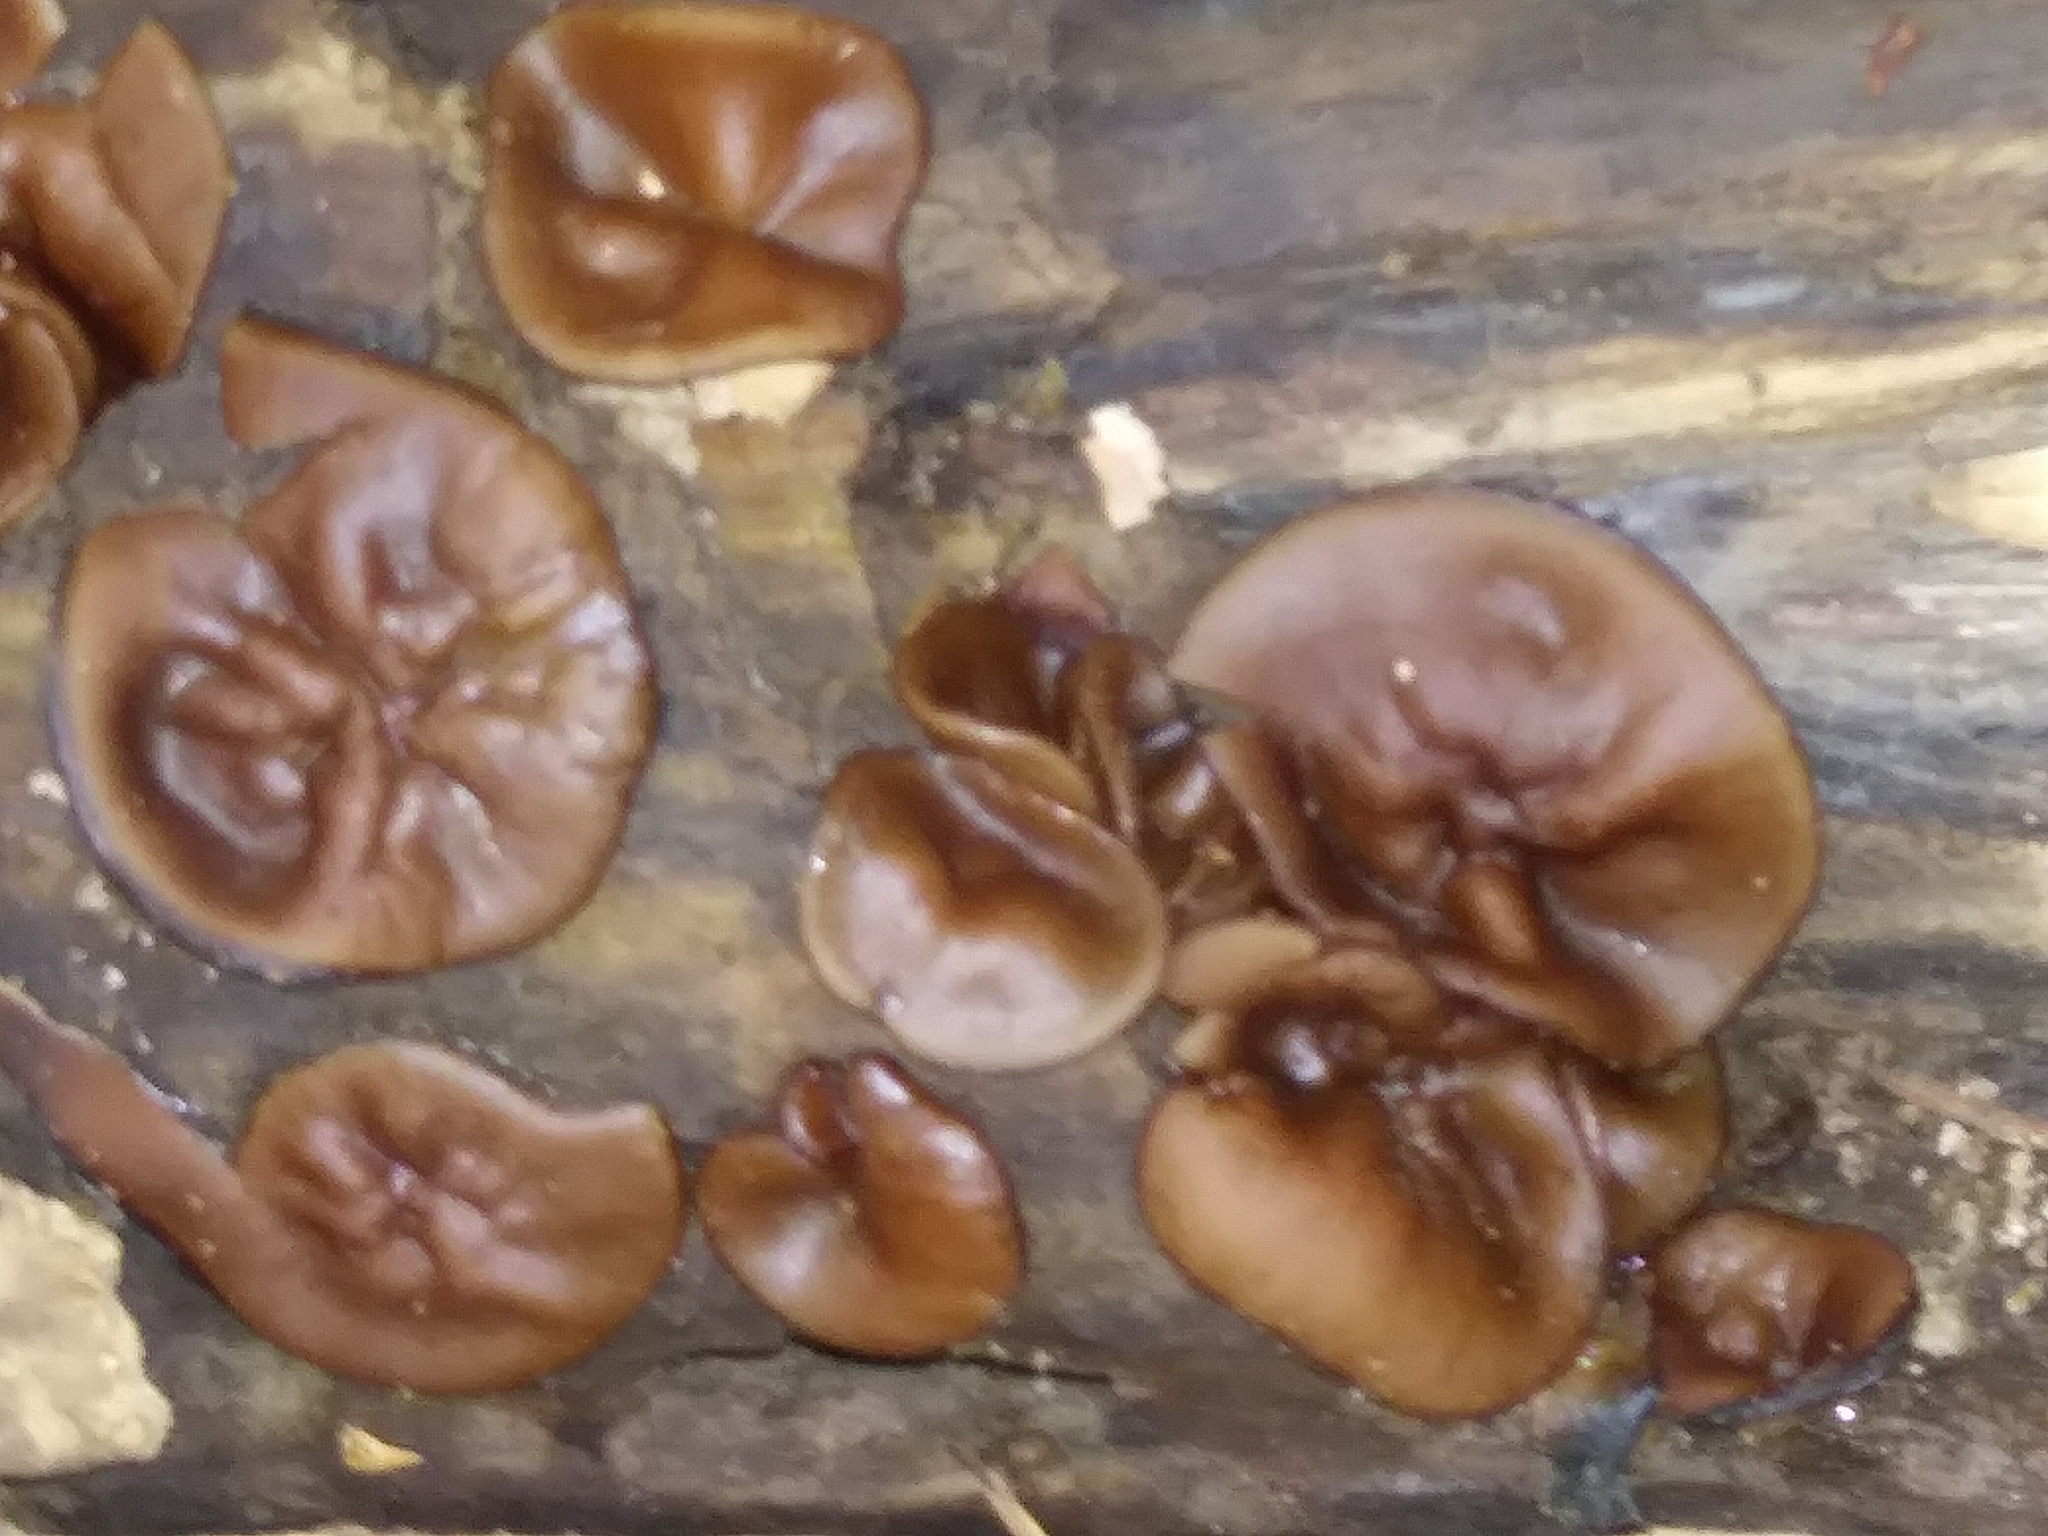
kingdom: Fungi
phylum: Ascomycota
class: Pezizomycetes
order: Pezizales
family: Pezizaceae
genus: Pachyella
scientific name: Pachyella clypeata
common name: Copper penny fungus
